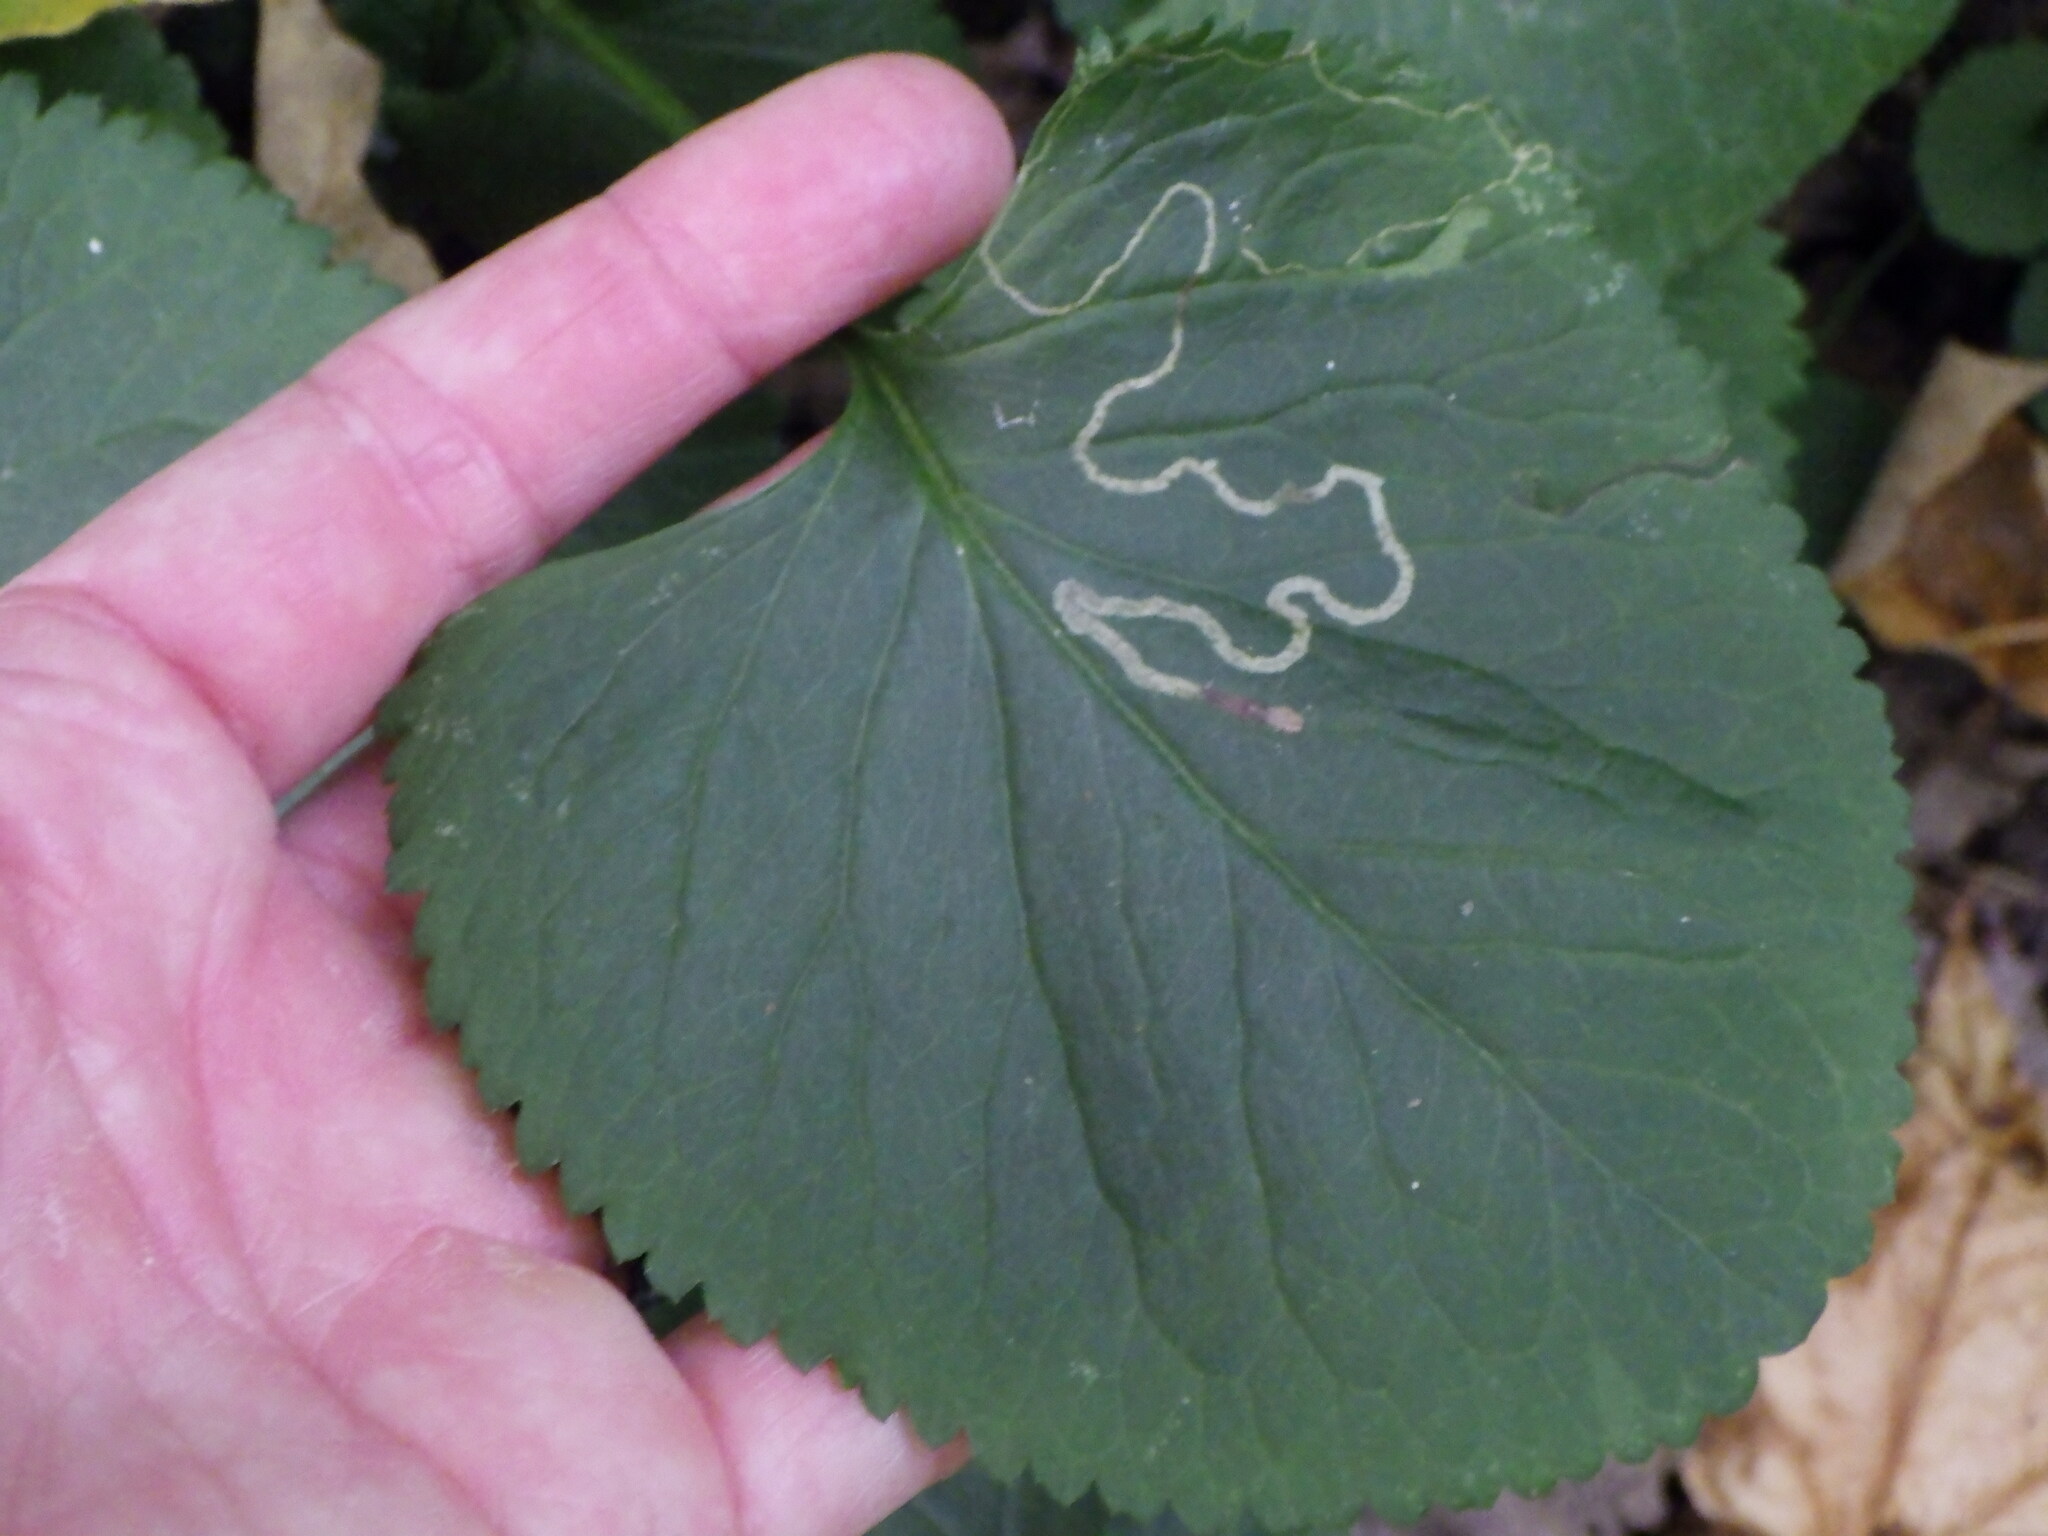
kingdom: Animalia
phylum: Arthropoda
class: Insecta
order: Lepidoptera
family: Gracillariidae
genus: Phyllocnistis
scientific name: Phyllocnistis insignis
